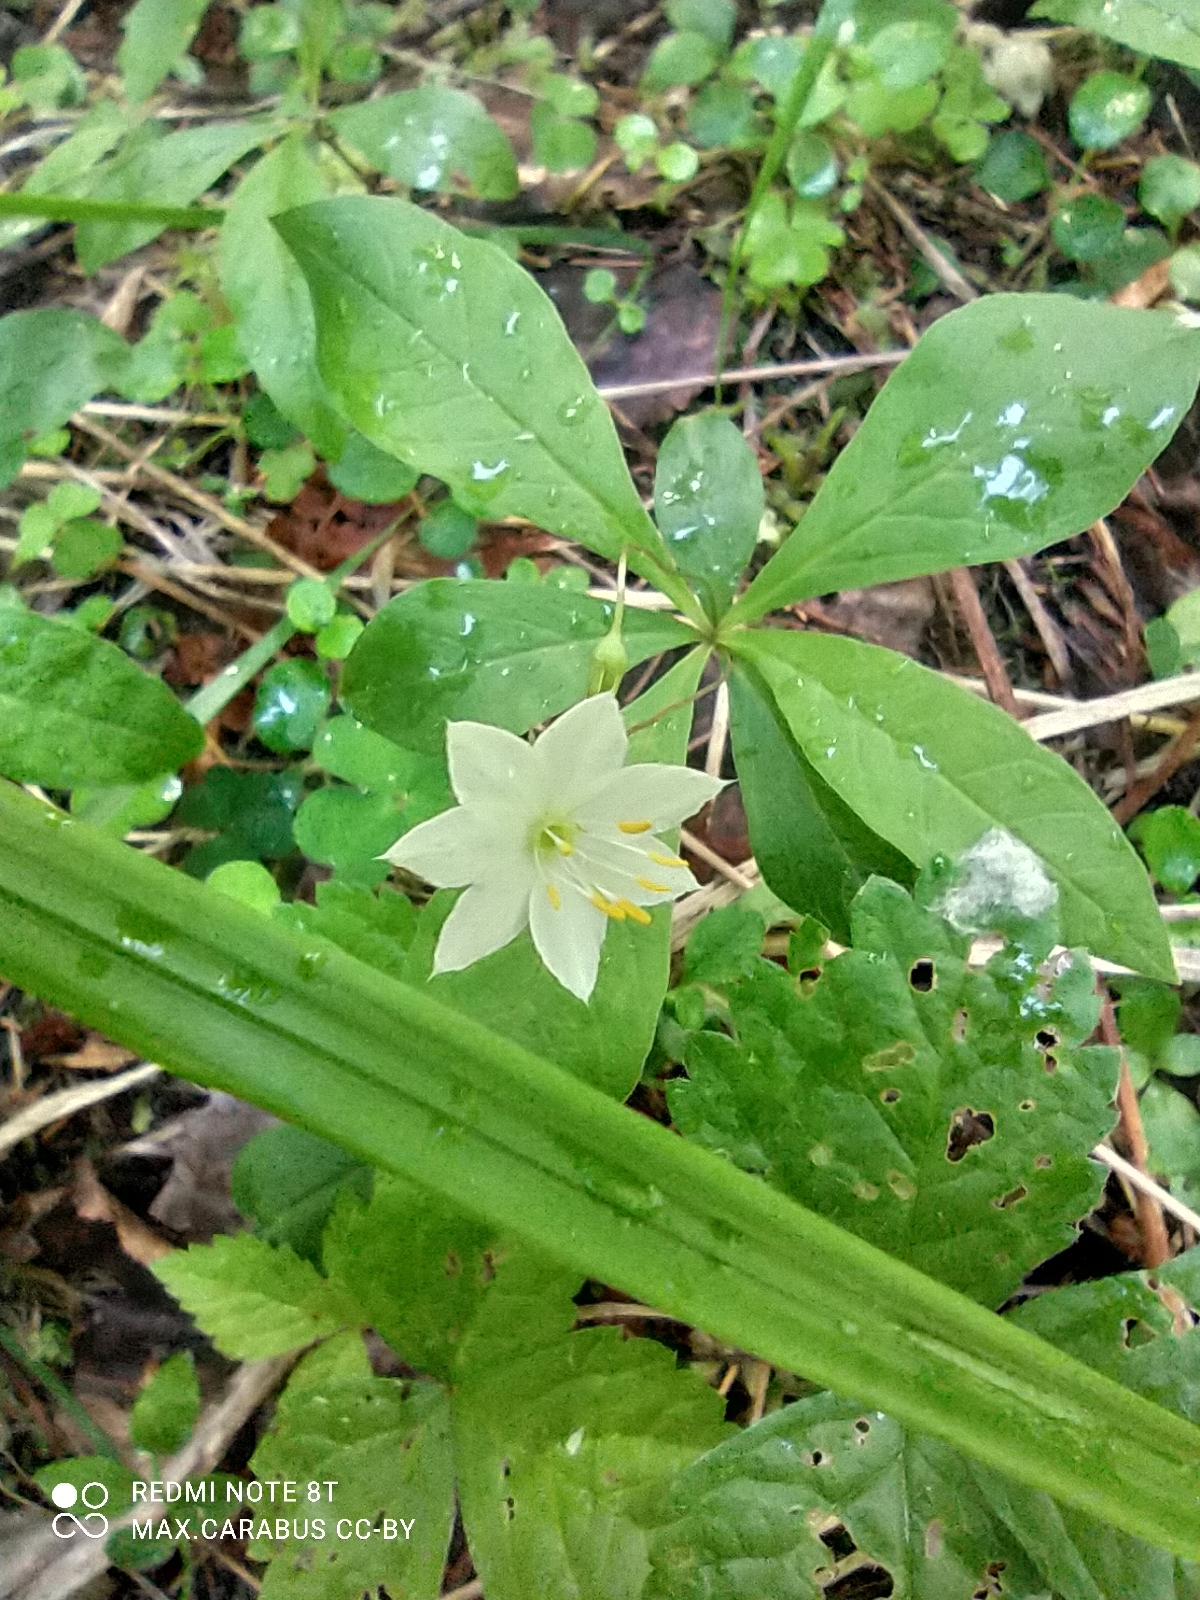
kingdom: Plantae
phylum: Tracheophyta
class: Magnoliopsida
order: Ericales
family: Primulaceae
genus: Lysimachia
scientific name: Lysimachia europaea
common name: Arctic starflower
